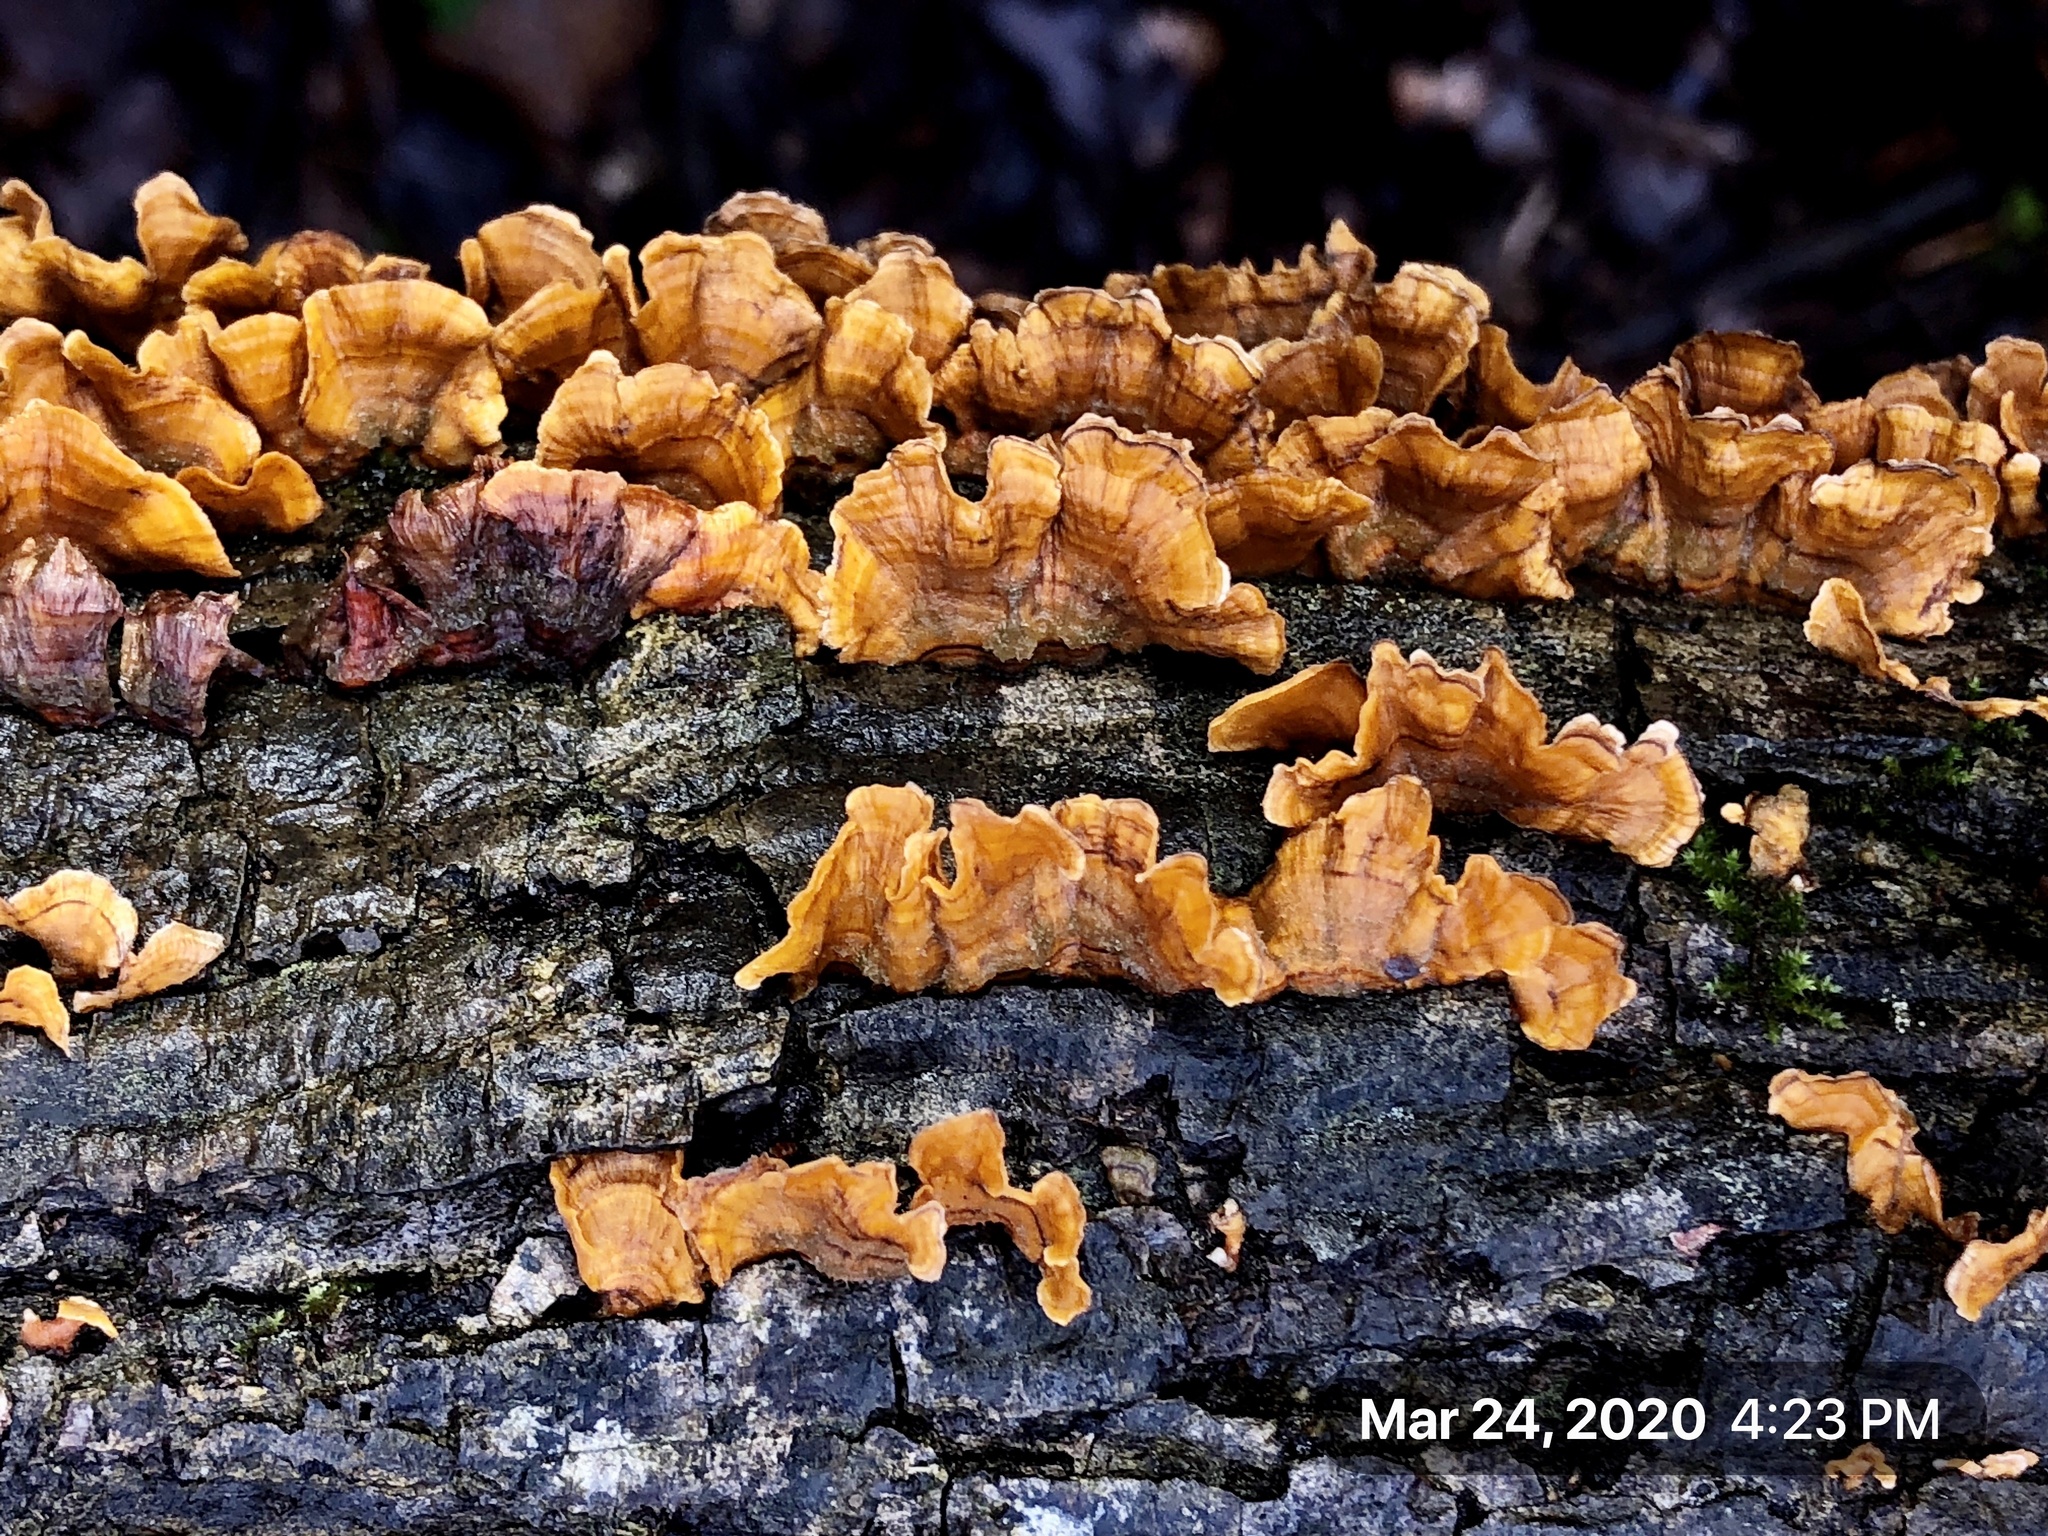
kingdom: Fungi
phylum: Basidiomycota
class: Agaricomycetes
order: Russulales
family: Stereaceae
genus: Stereum
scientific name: Stereum complicatum
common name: Crowded parchment
